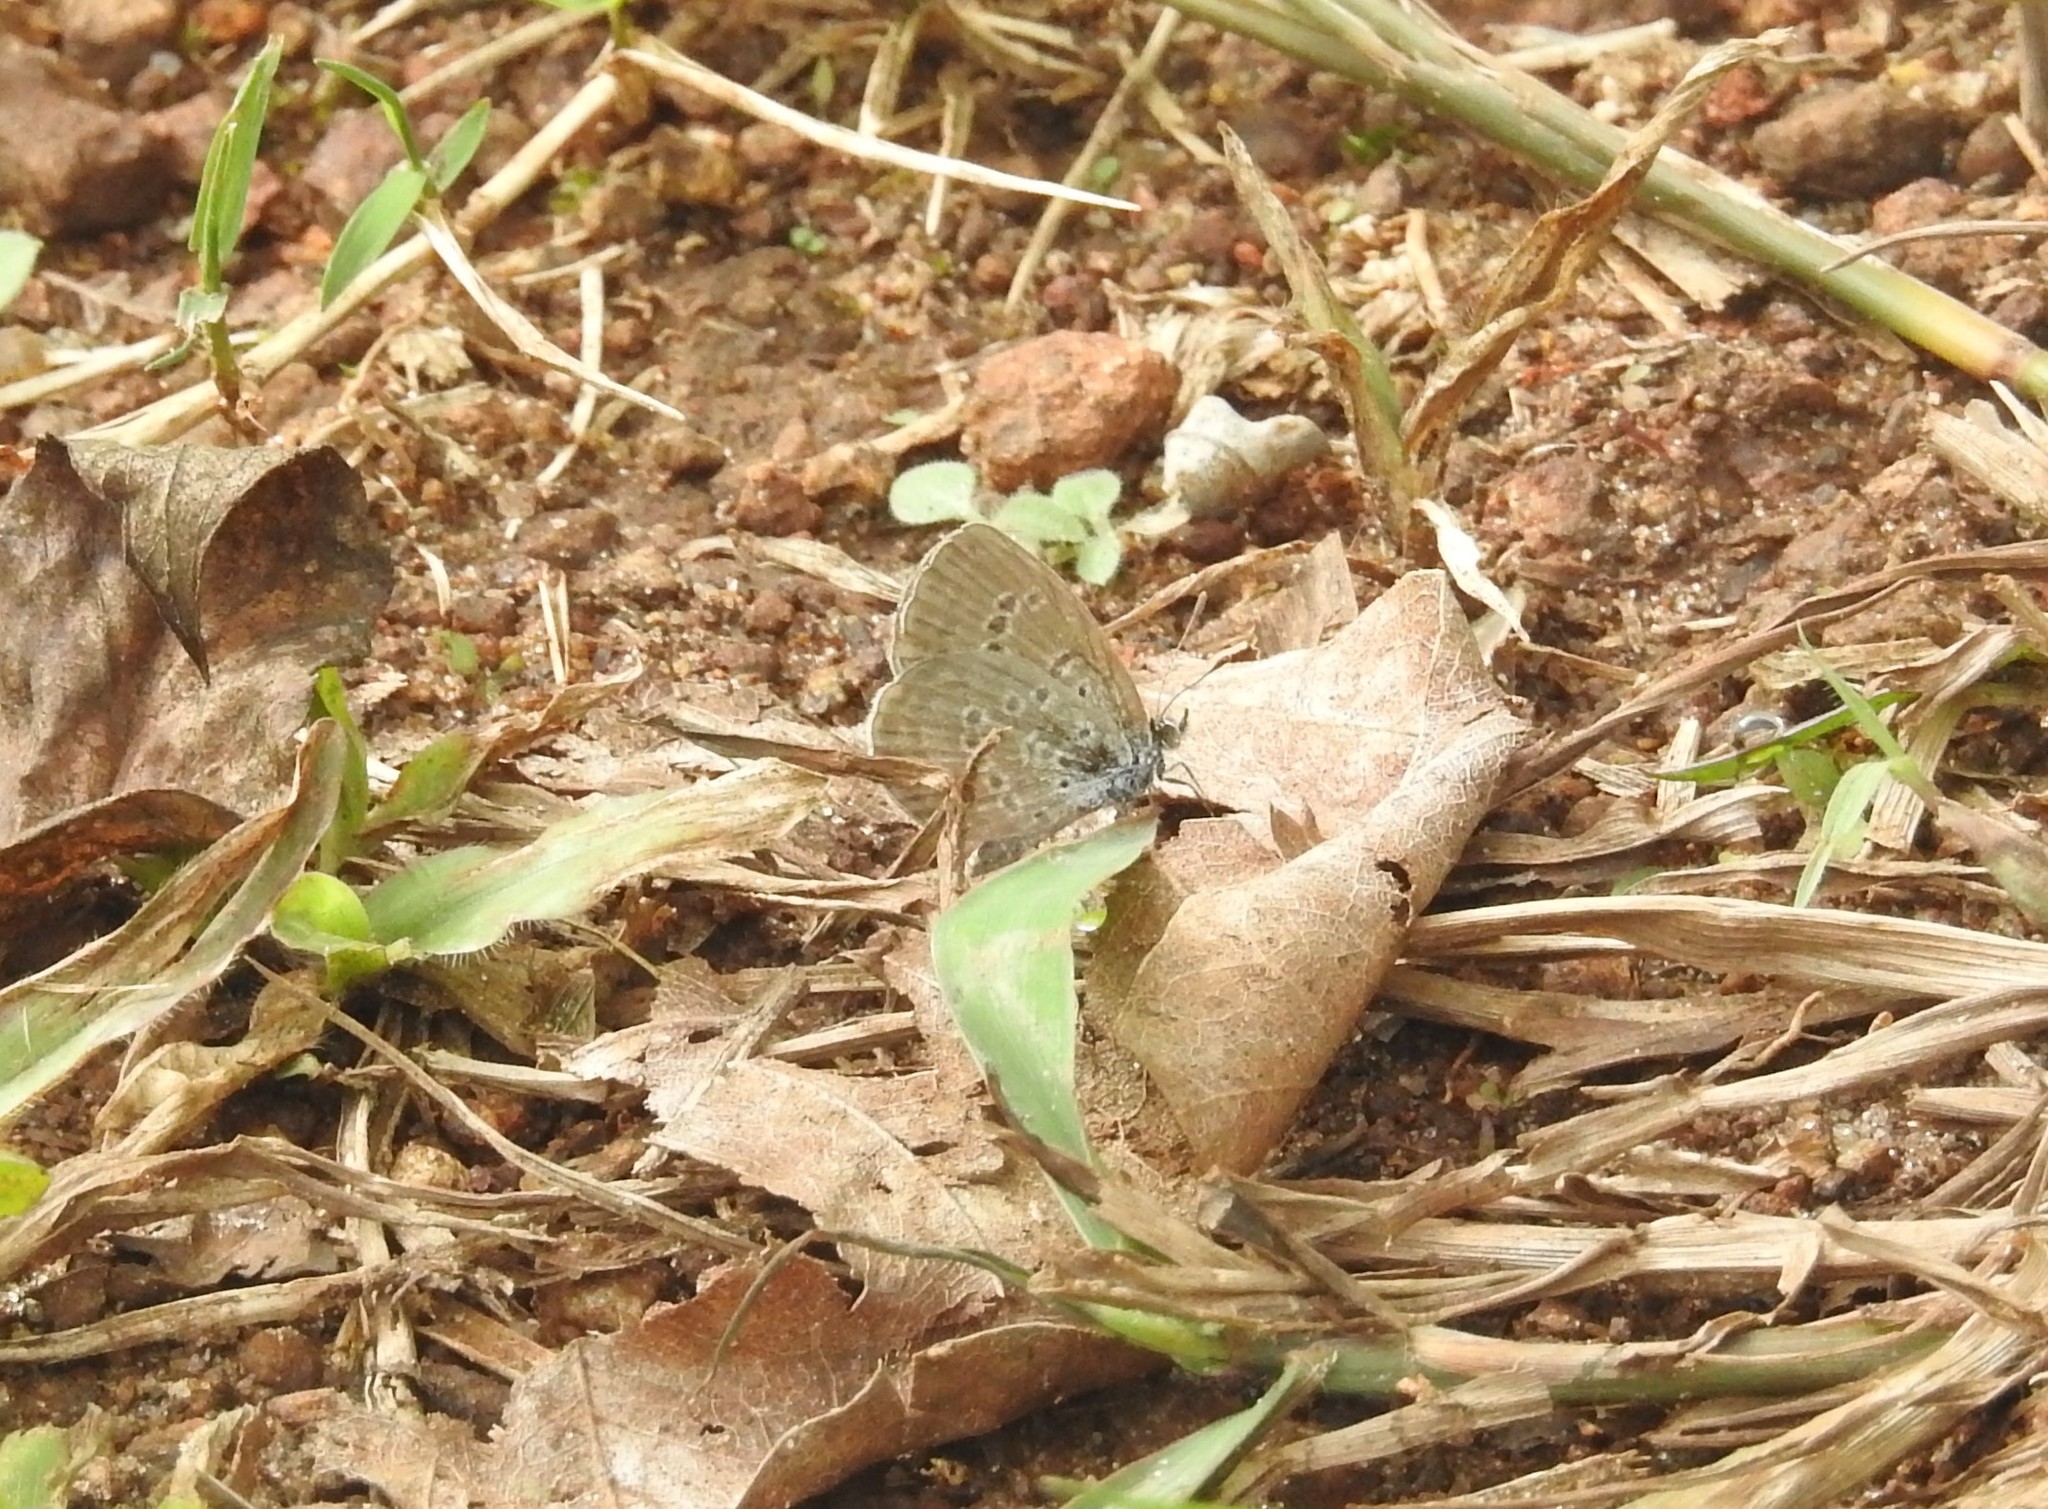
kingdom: Animalia
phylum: Arthropoda
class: Insecta
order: Lepidoptera
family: Lycaenidae
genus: Zizina
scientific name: Zizina otis
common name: Lesser grass blue
